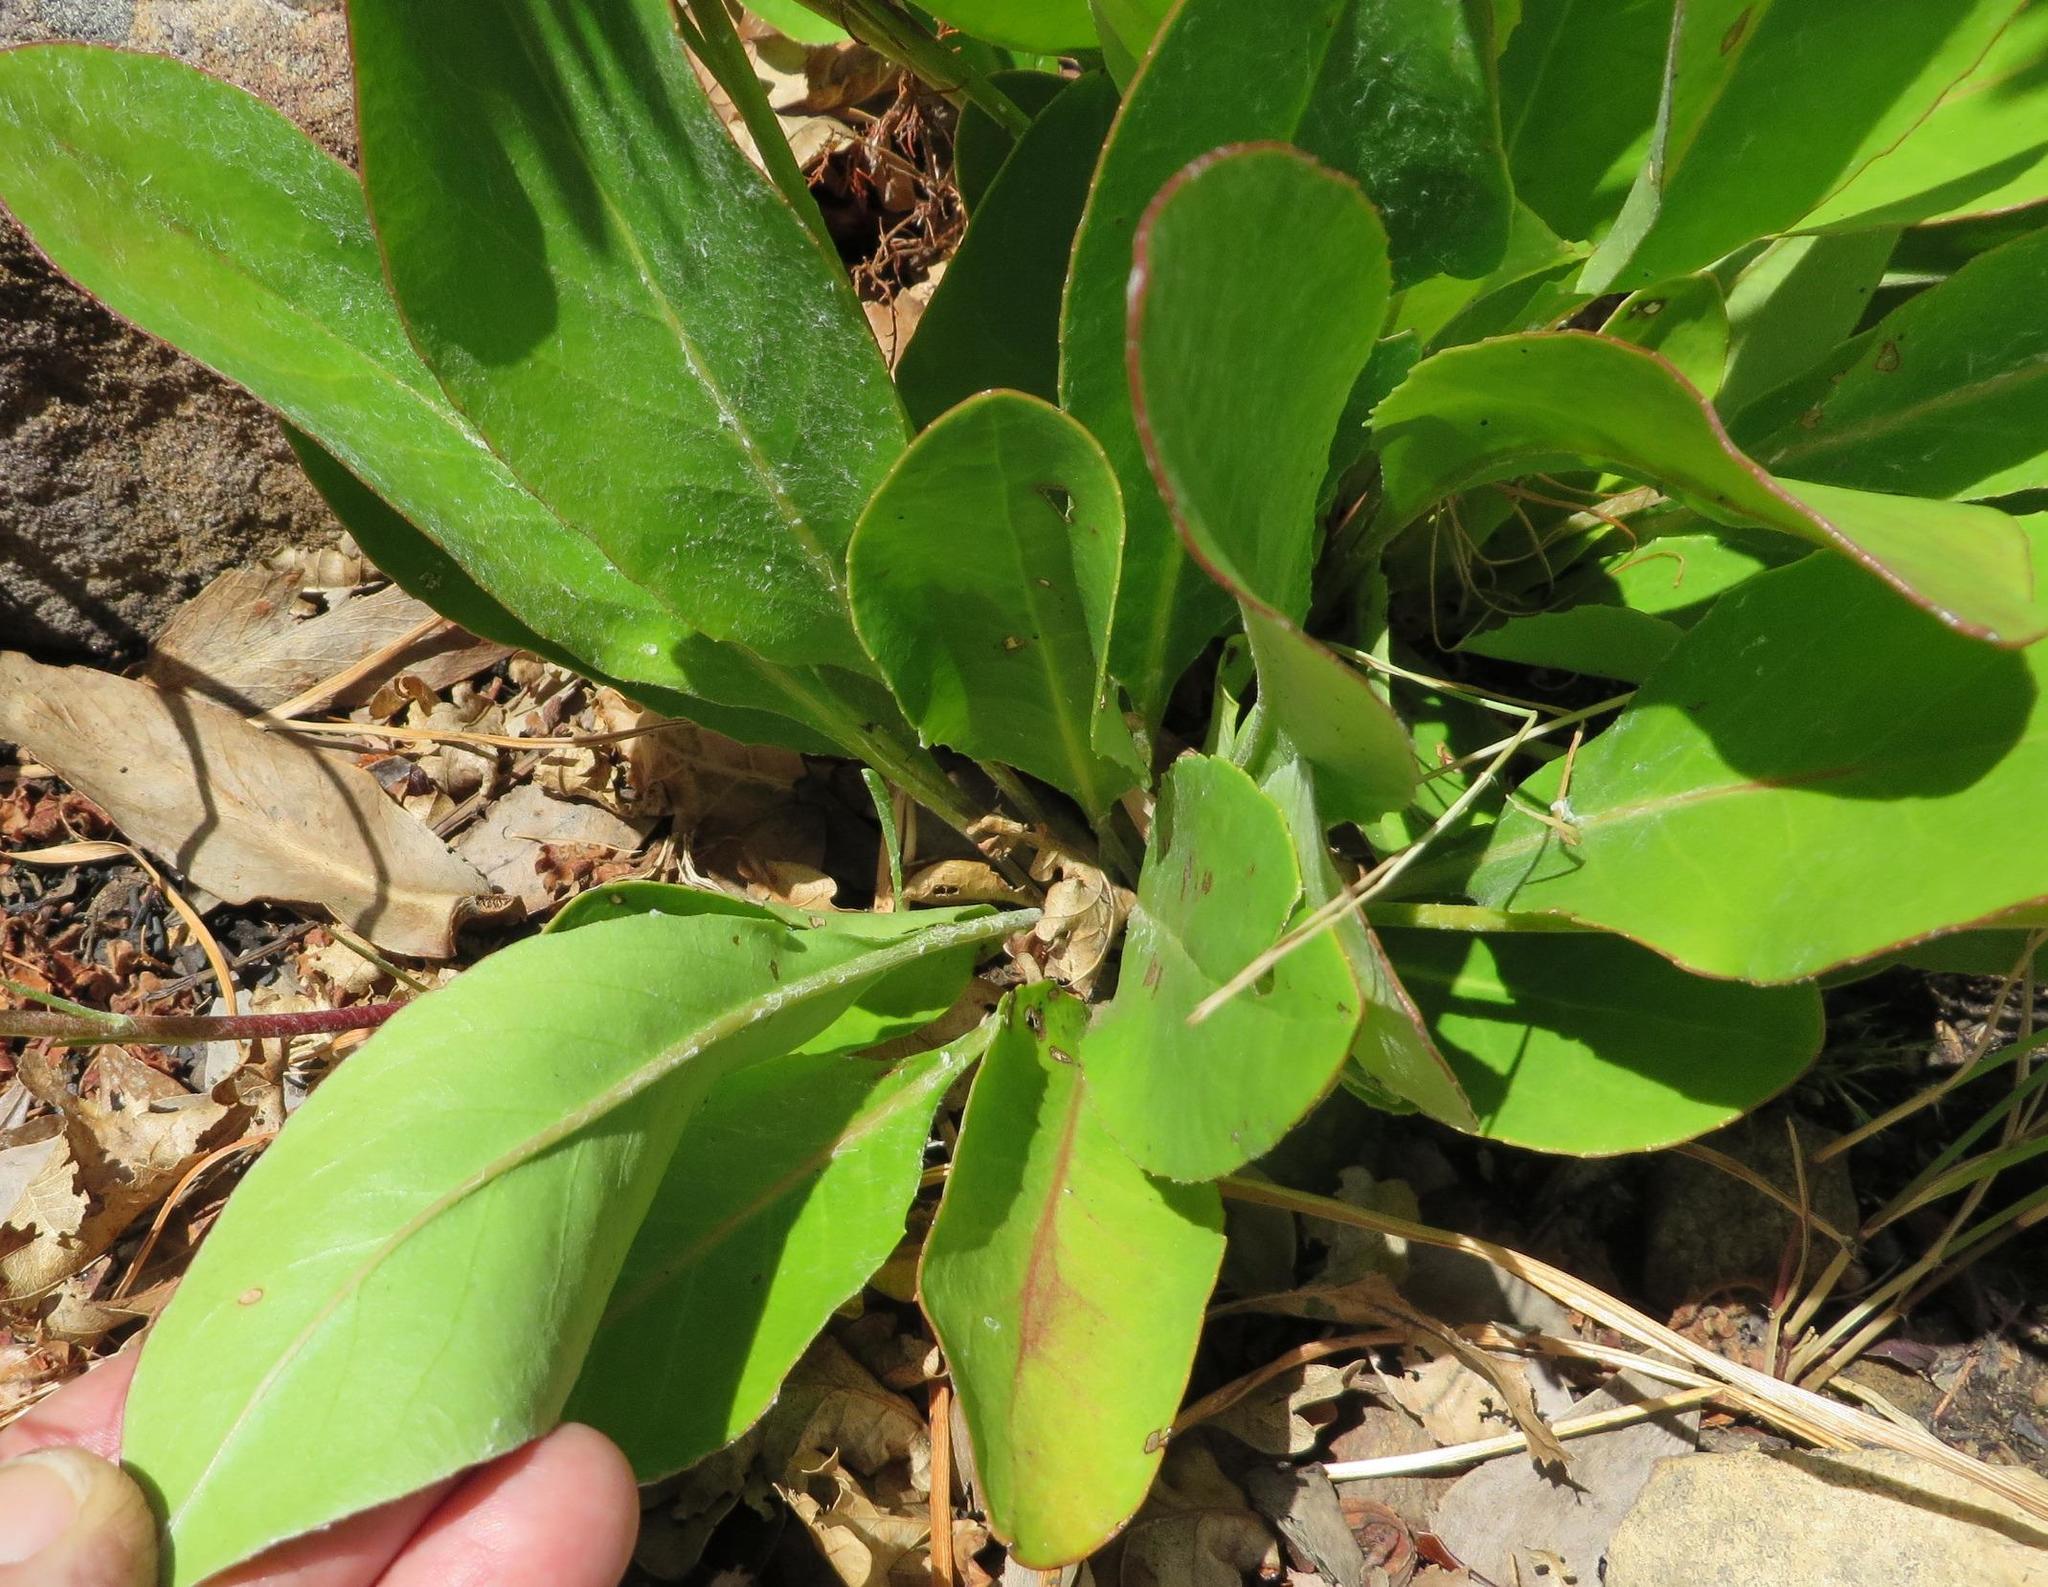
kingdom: Plantae
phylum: Tracheophyta
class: Magnoliopsida
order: Asterales
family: Asteraceae
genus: Gerbera
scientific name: Gerbera crocea
